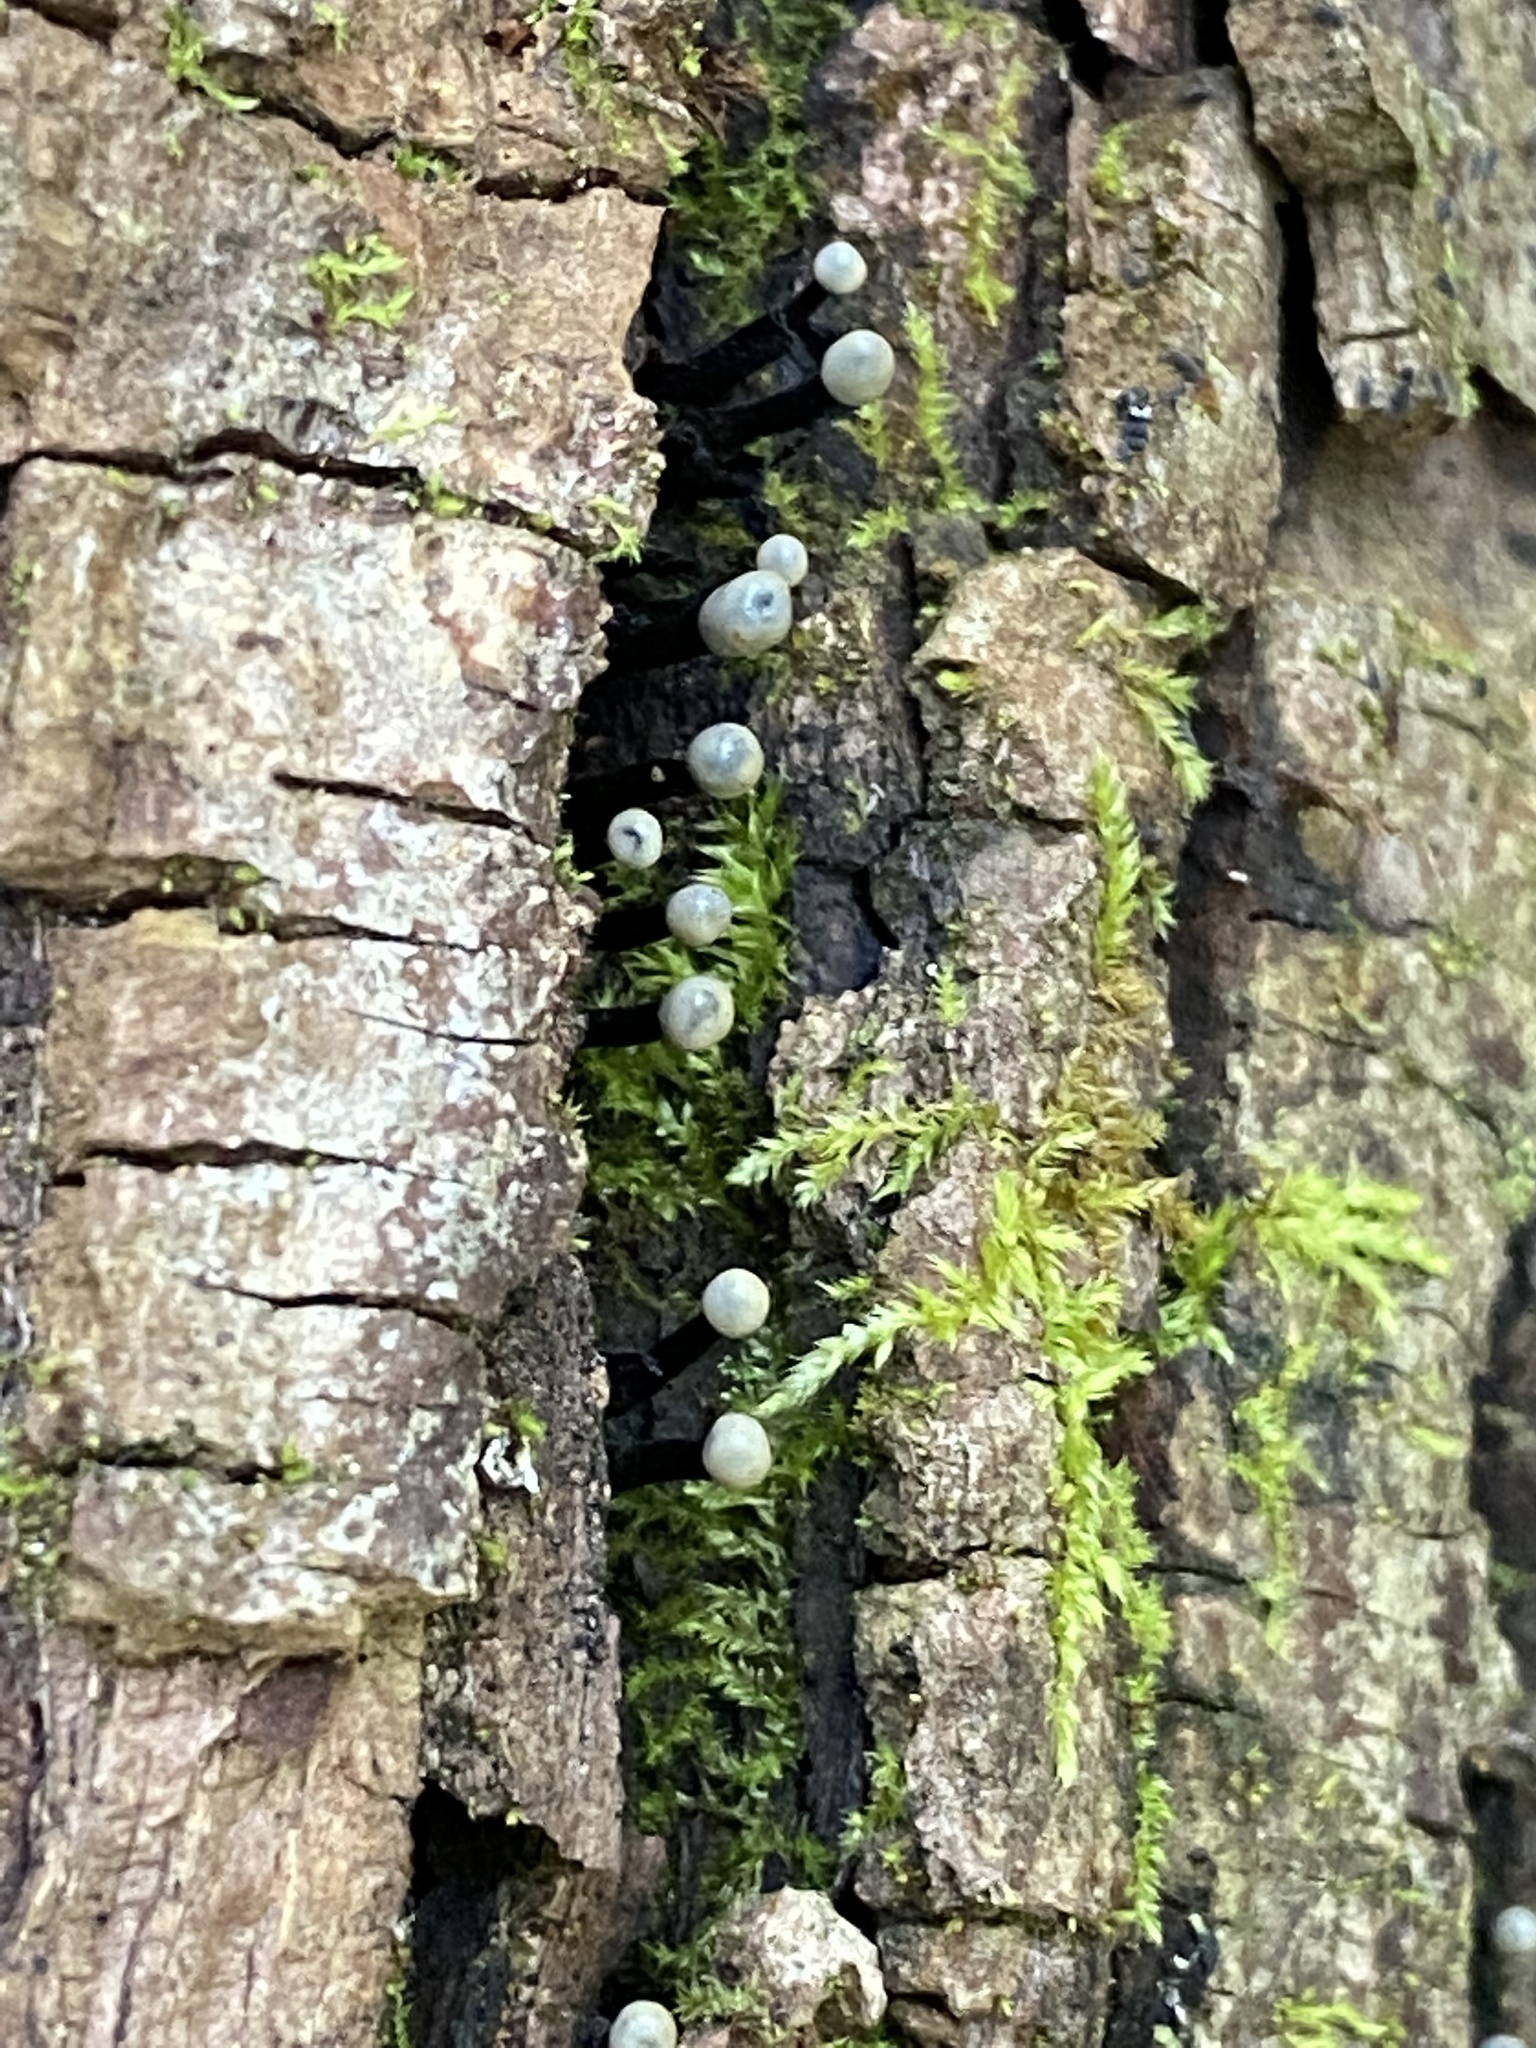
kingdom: Fungi
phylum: Ascomycota
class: Leotiomycetes
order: Helotiales
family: Bulgariaceae
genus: Holwaya
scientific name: Holwaya mucida
